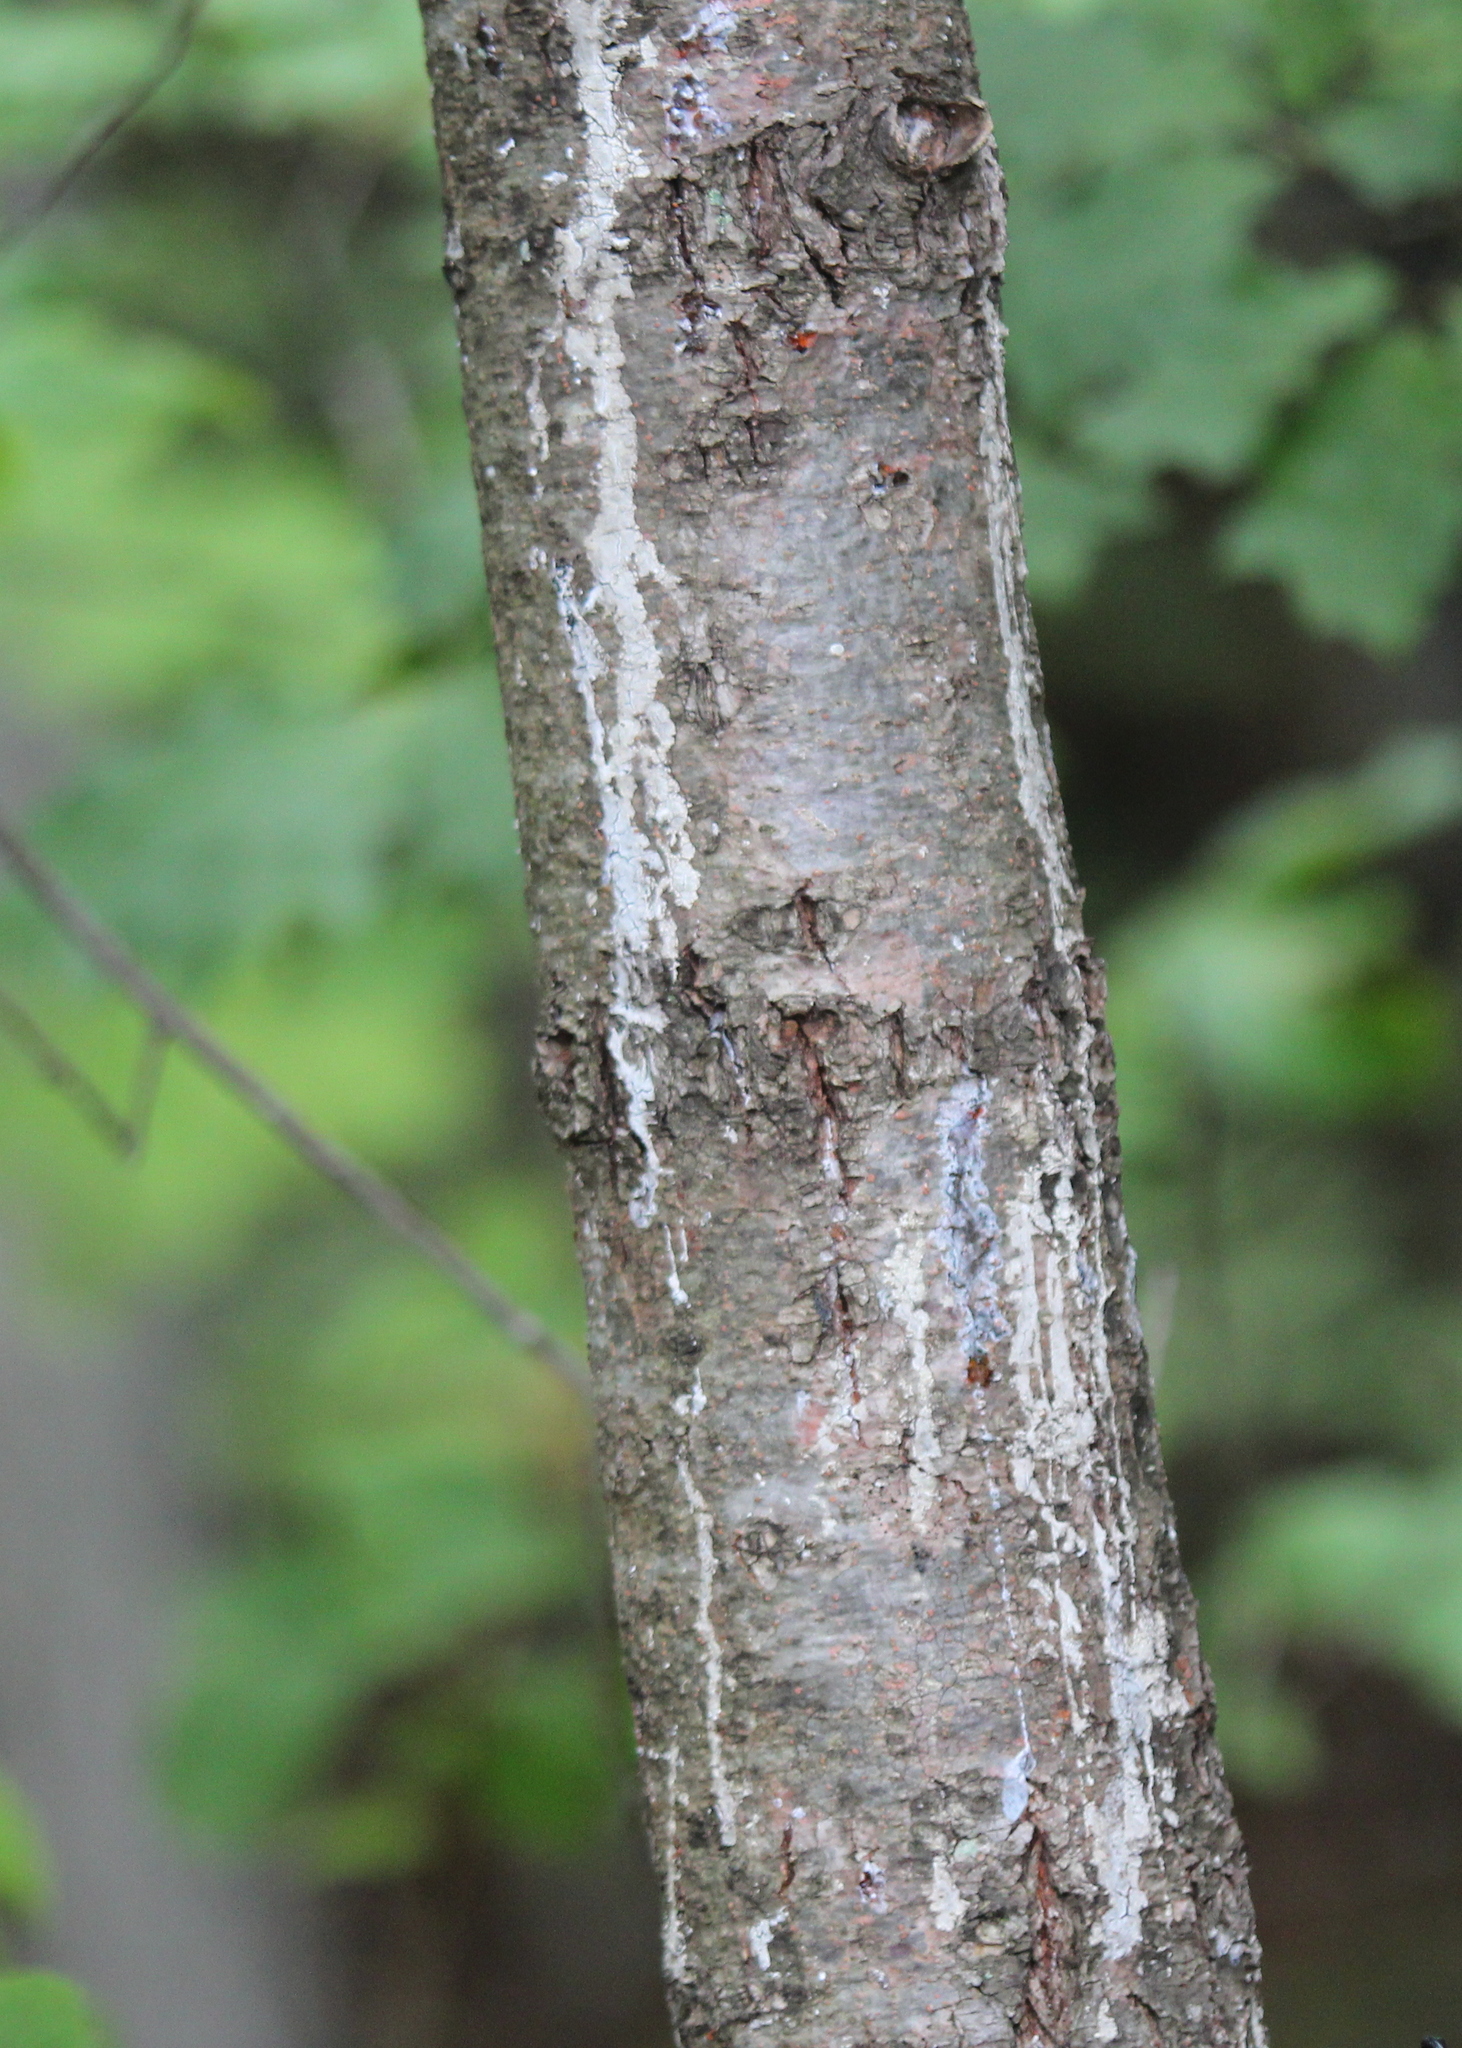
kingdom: Plantae
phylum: Tracheophyta
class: Pinopsida
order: Pinales
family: Pinaceae
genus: Pinus
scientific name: Pinus strobus
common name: Weymouth pine
